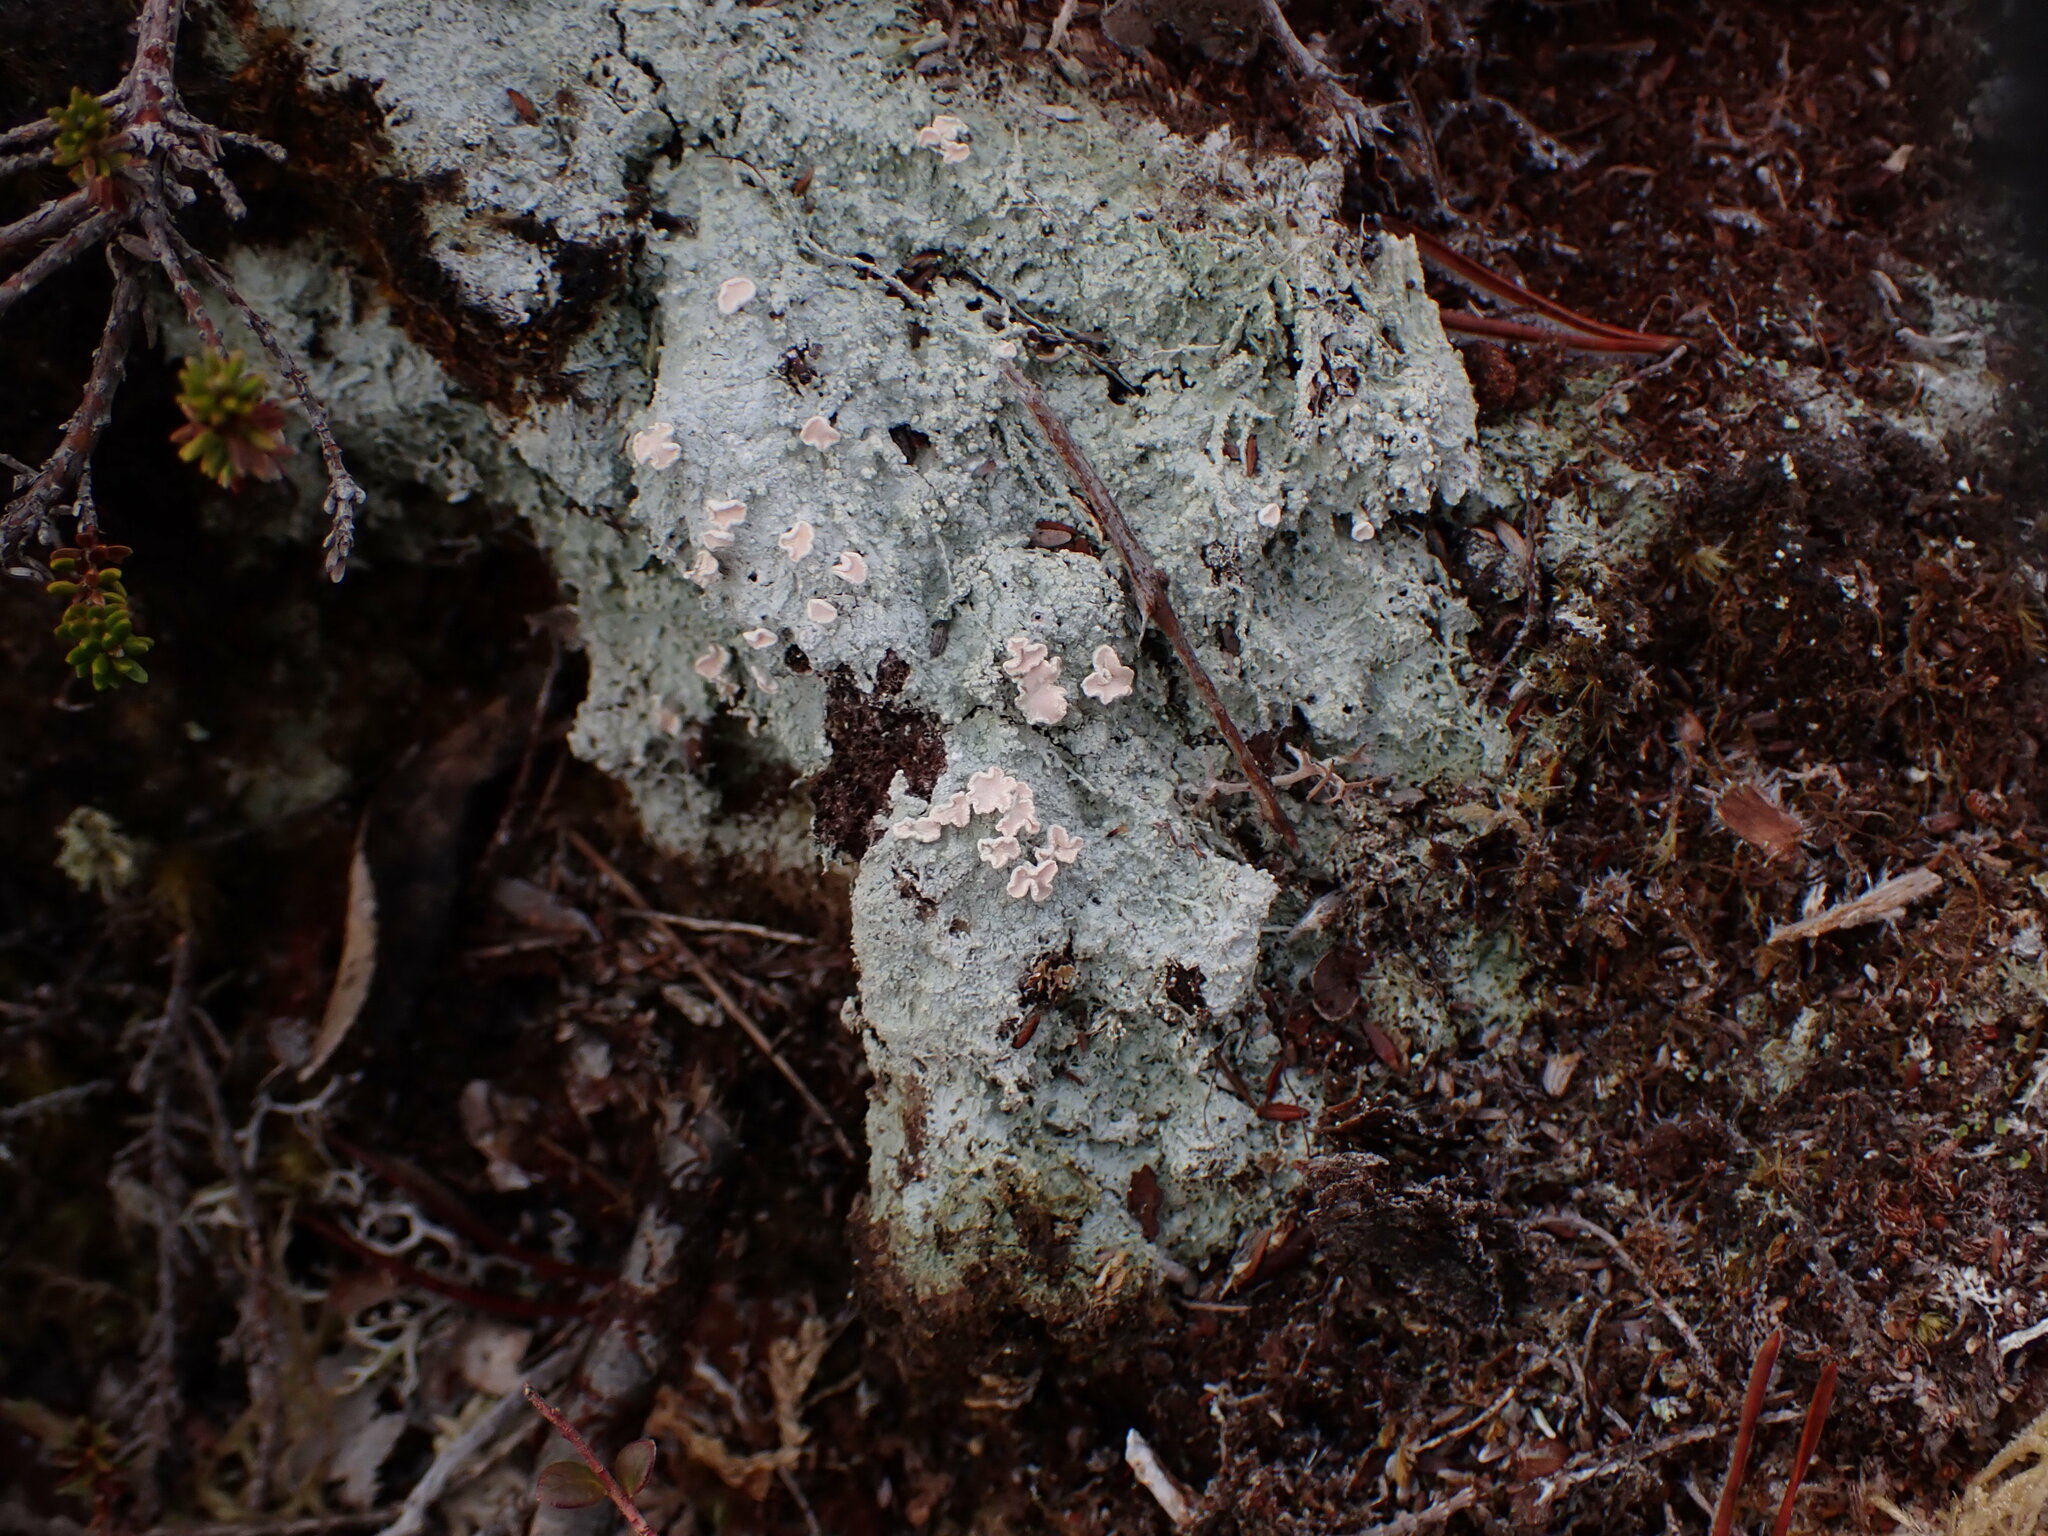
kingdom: Fungi
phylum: Ascomycota
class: Lecanoromycetes
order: Pertusariales
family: Icmadophilaceae
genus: Icmadophila
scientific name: Icmadophila ericetorum
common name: Candy lichen
